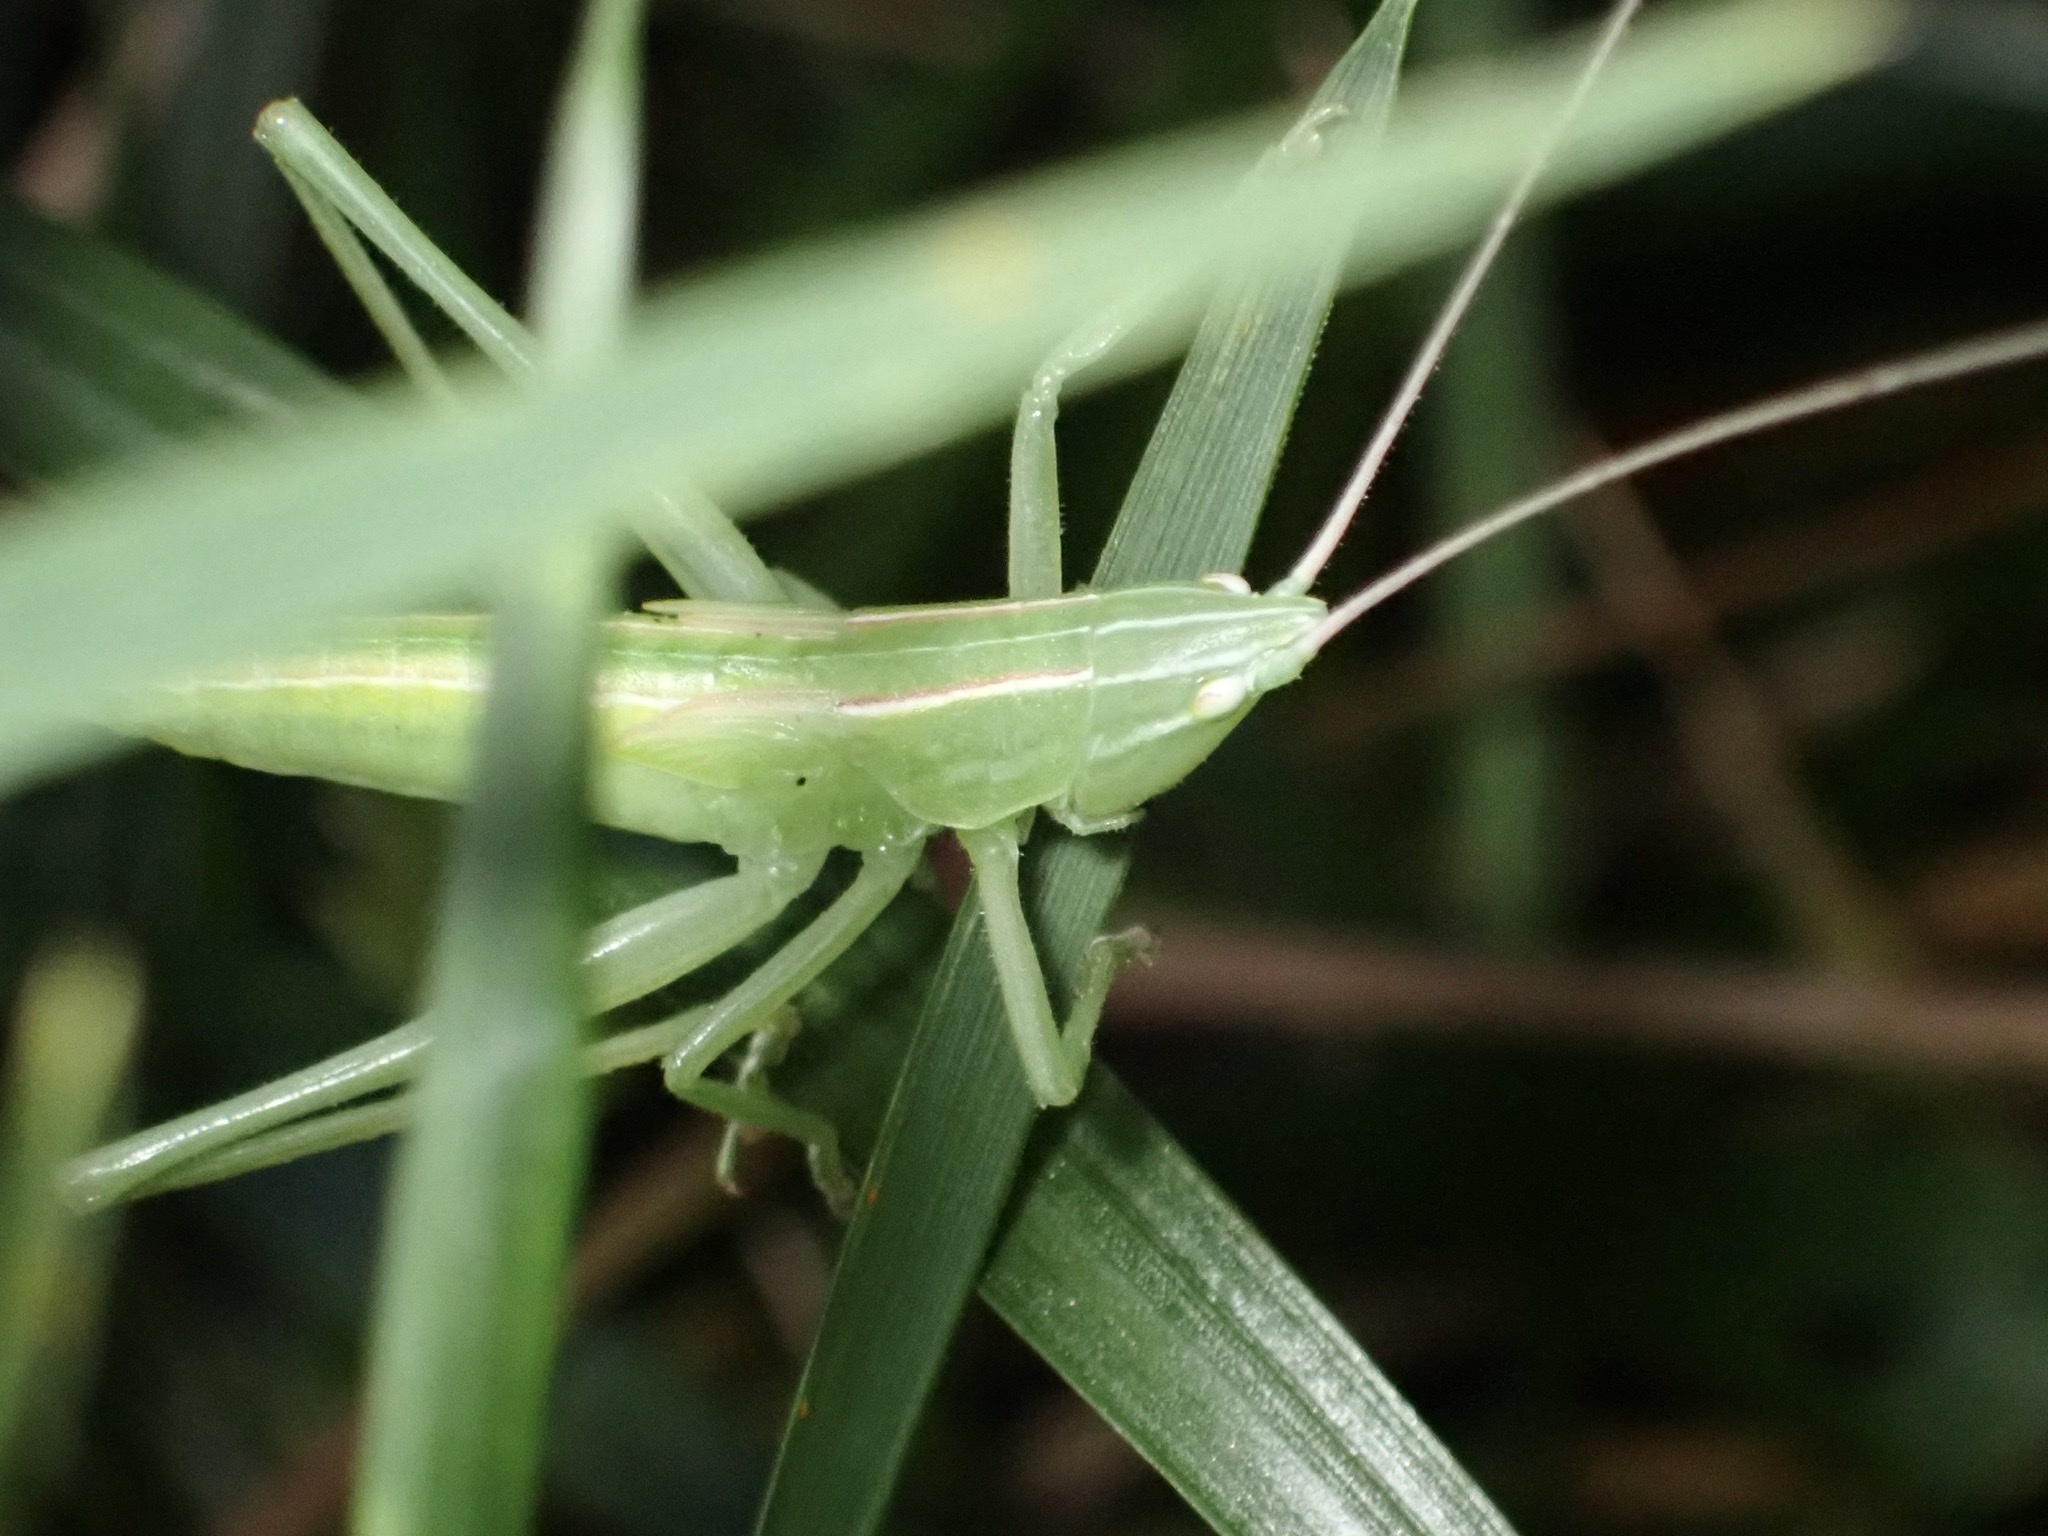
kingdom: Animalia
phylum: Arthropoda
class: Insecta
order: Orthoptera
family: Tettigoniidae
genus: Neoconocephalus
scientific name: Neoconocephalus ensiger
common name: Swordbearer
